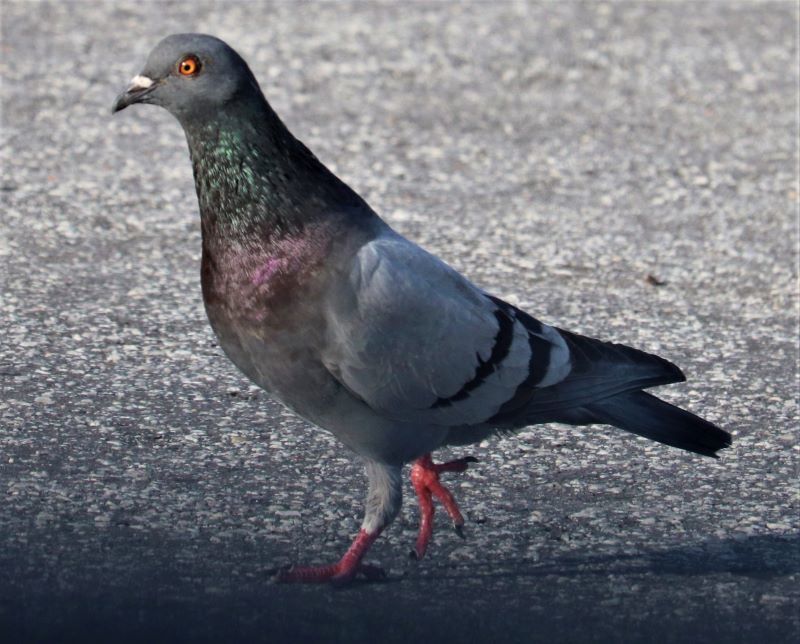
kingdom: Animalia
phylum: Chordata
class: Aves
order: Columbiformes
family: Columbidae
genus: Columba
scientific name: Columba livia
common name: Rock pigeon
